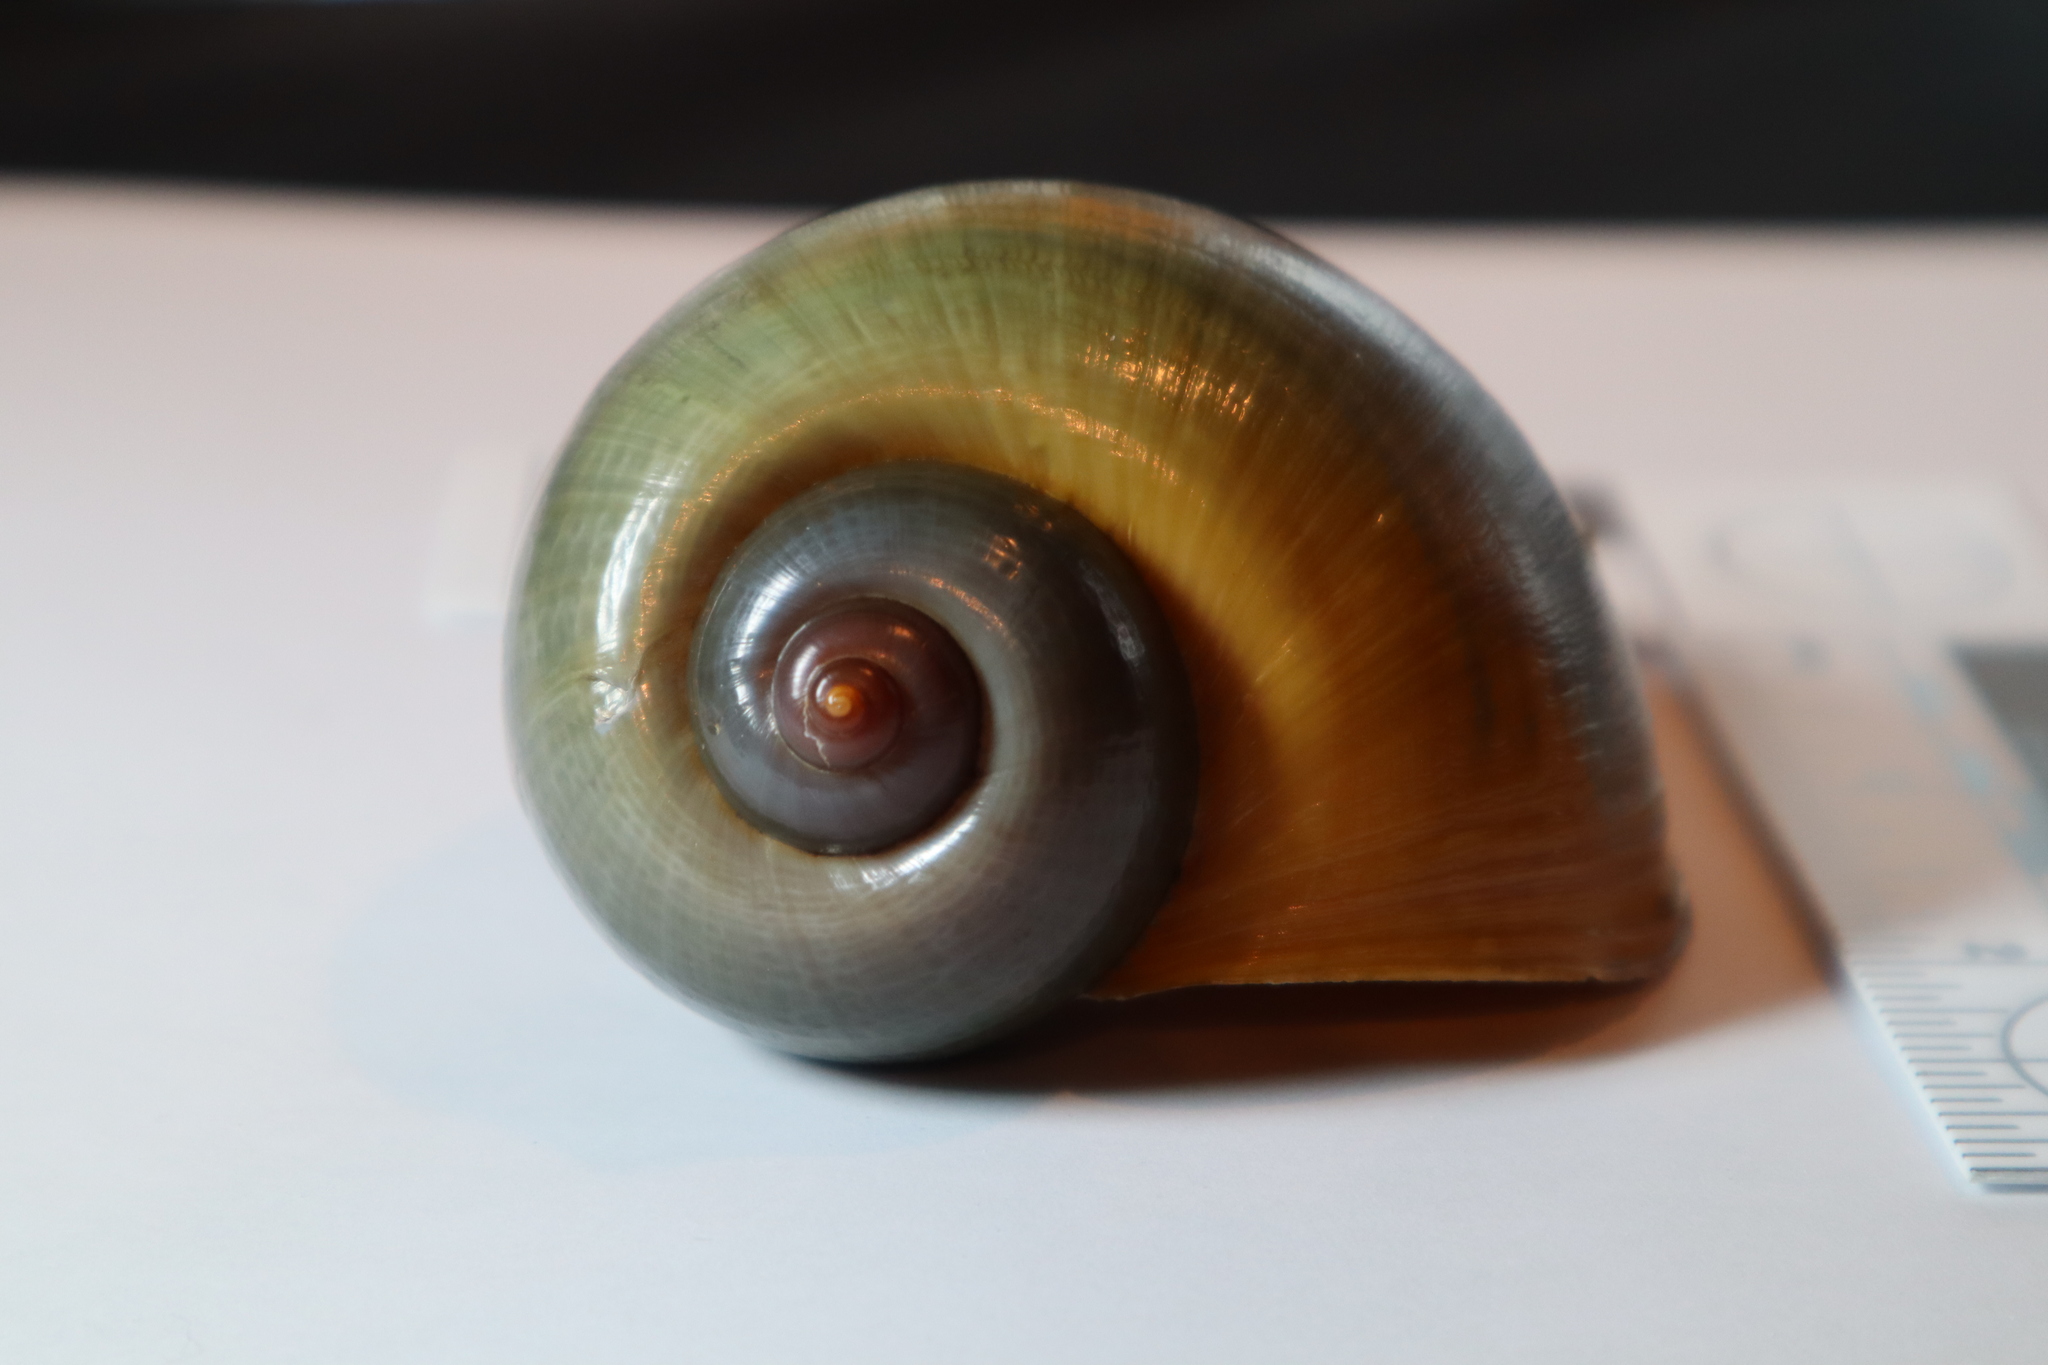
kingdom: Animalia
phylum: Mollusca
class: Gastropoda
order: Architaenioglossa
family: Ampullariidae
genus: Pomacea
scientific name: Pomacea maculata
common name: Giant applesnail
